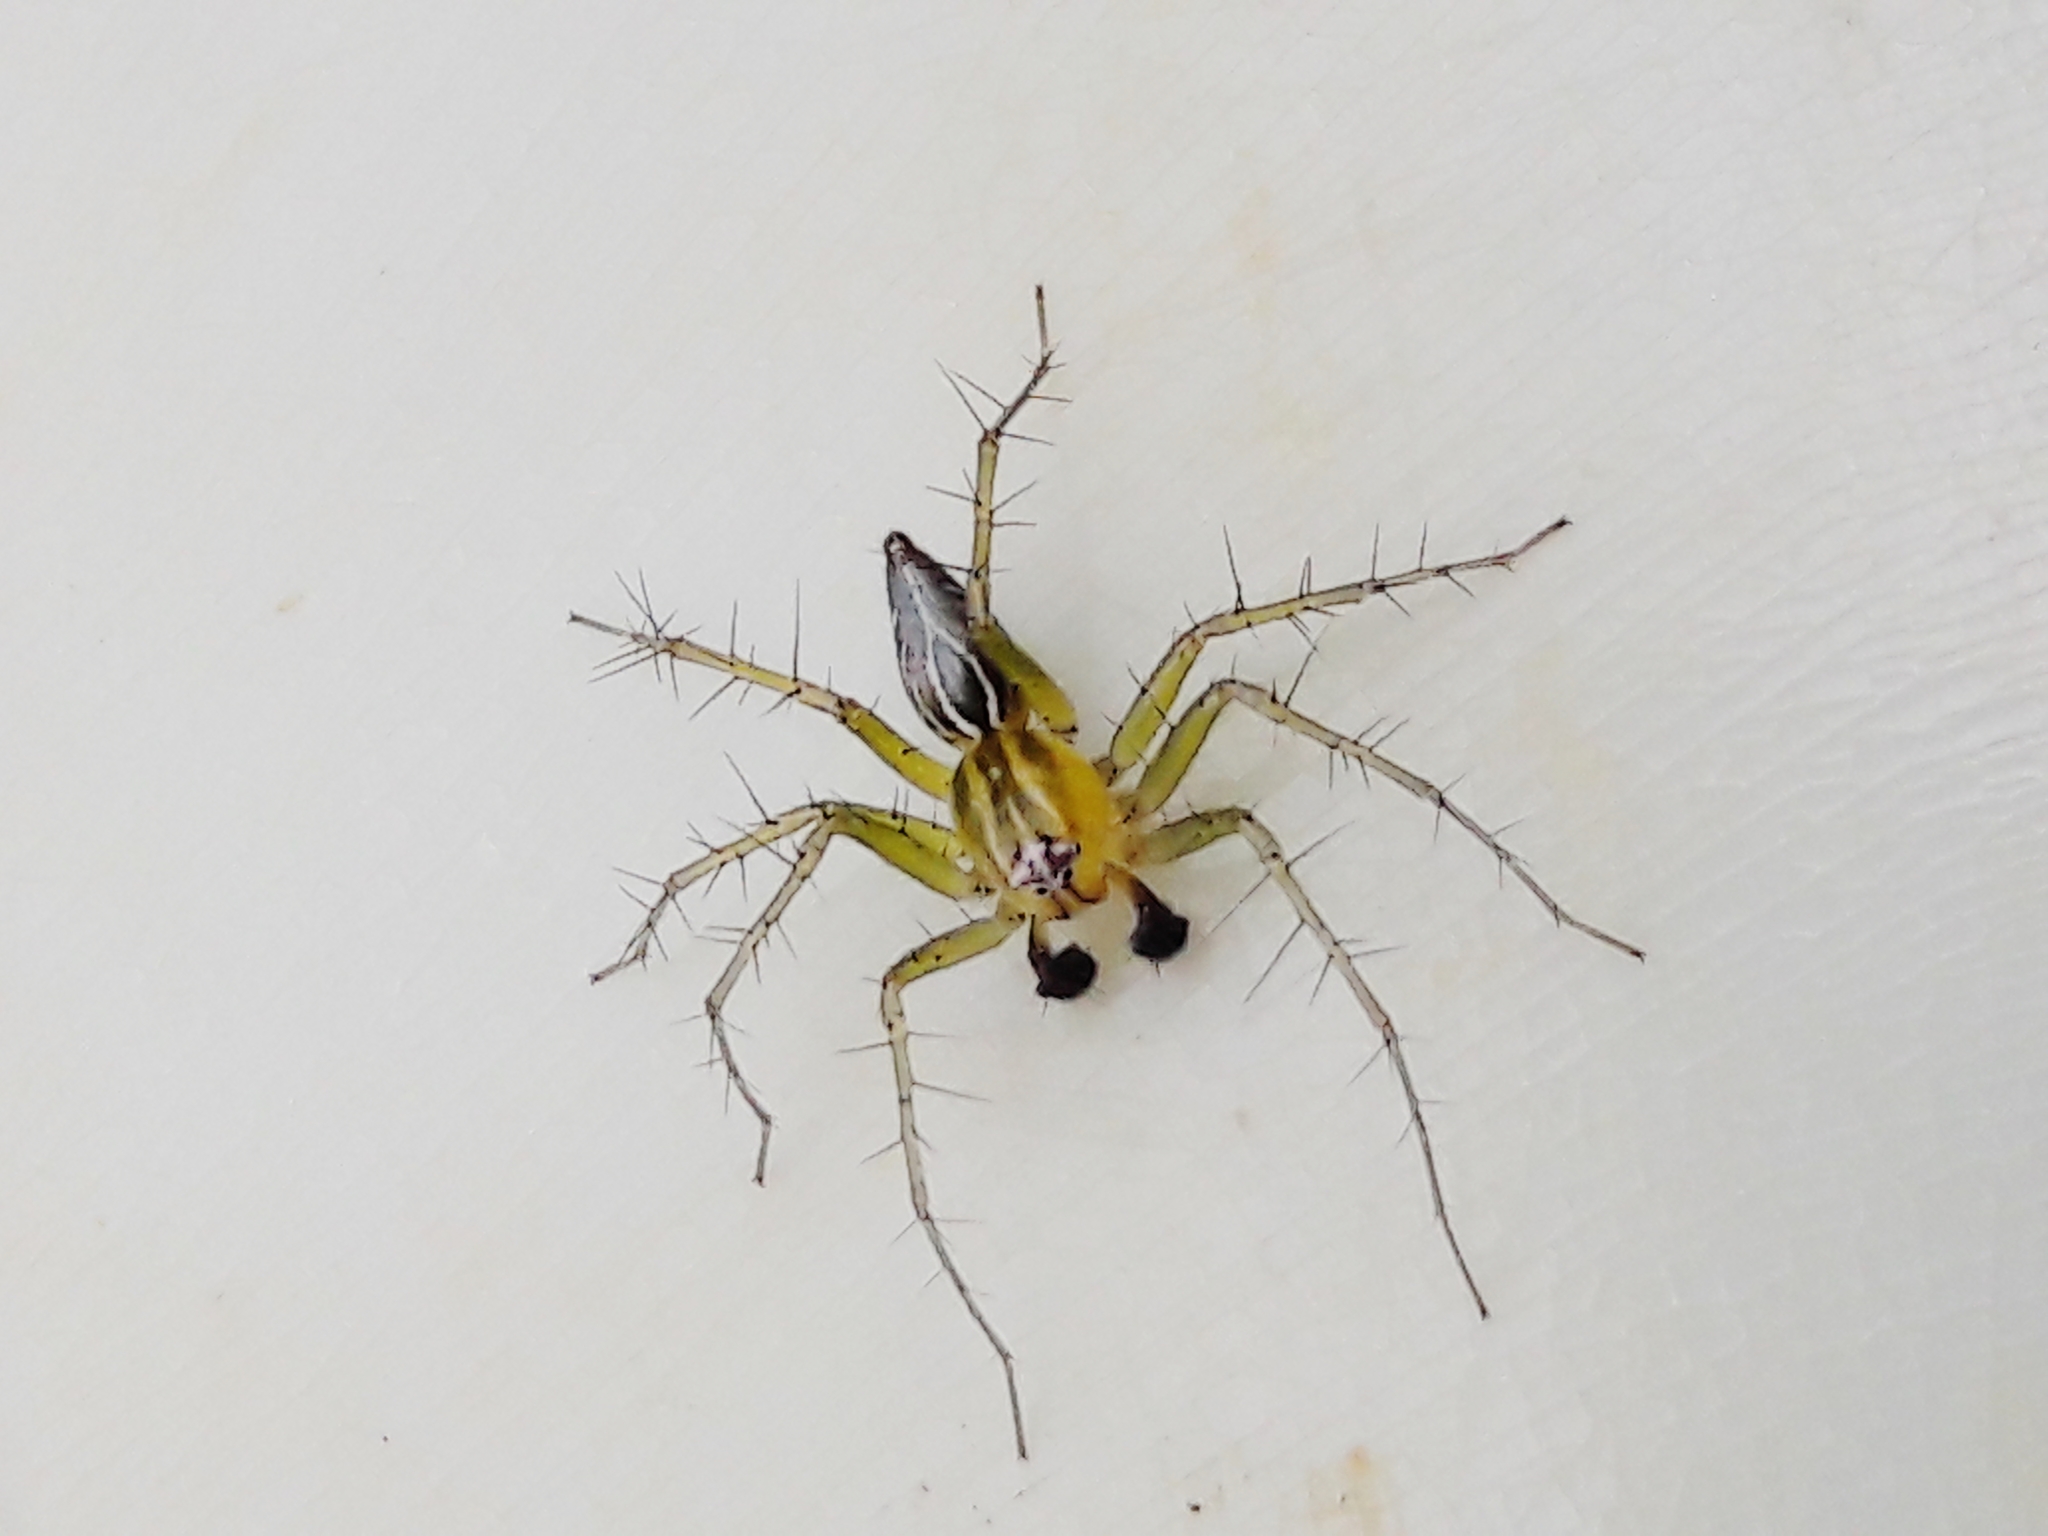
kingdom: Animalia
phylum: Arthropoda
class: Arachnida
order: Araneae
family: Oxyopidae
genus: Oxyopes
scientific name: Oxyopes salticus
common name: Lynx spiders
